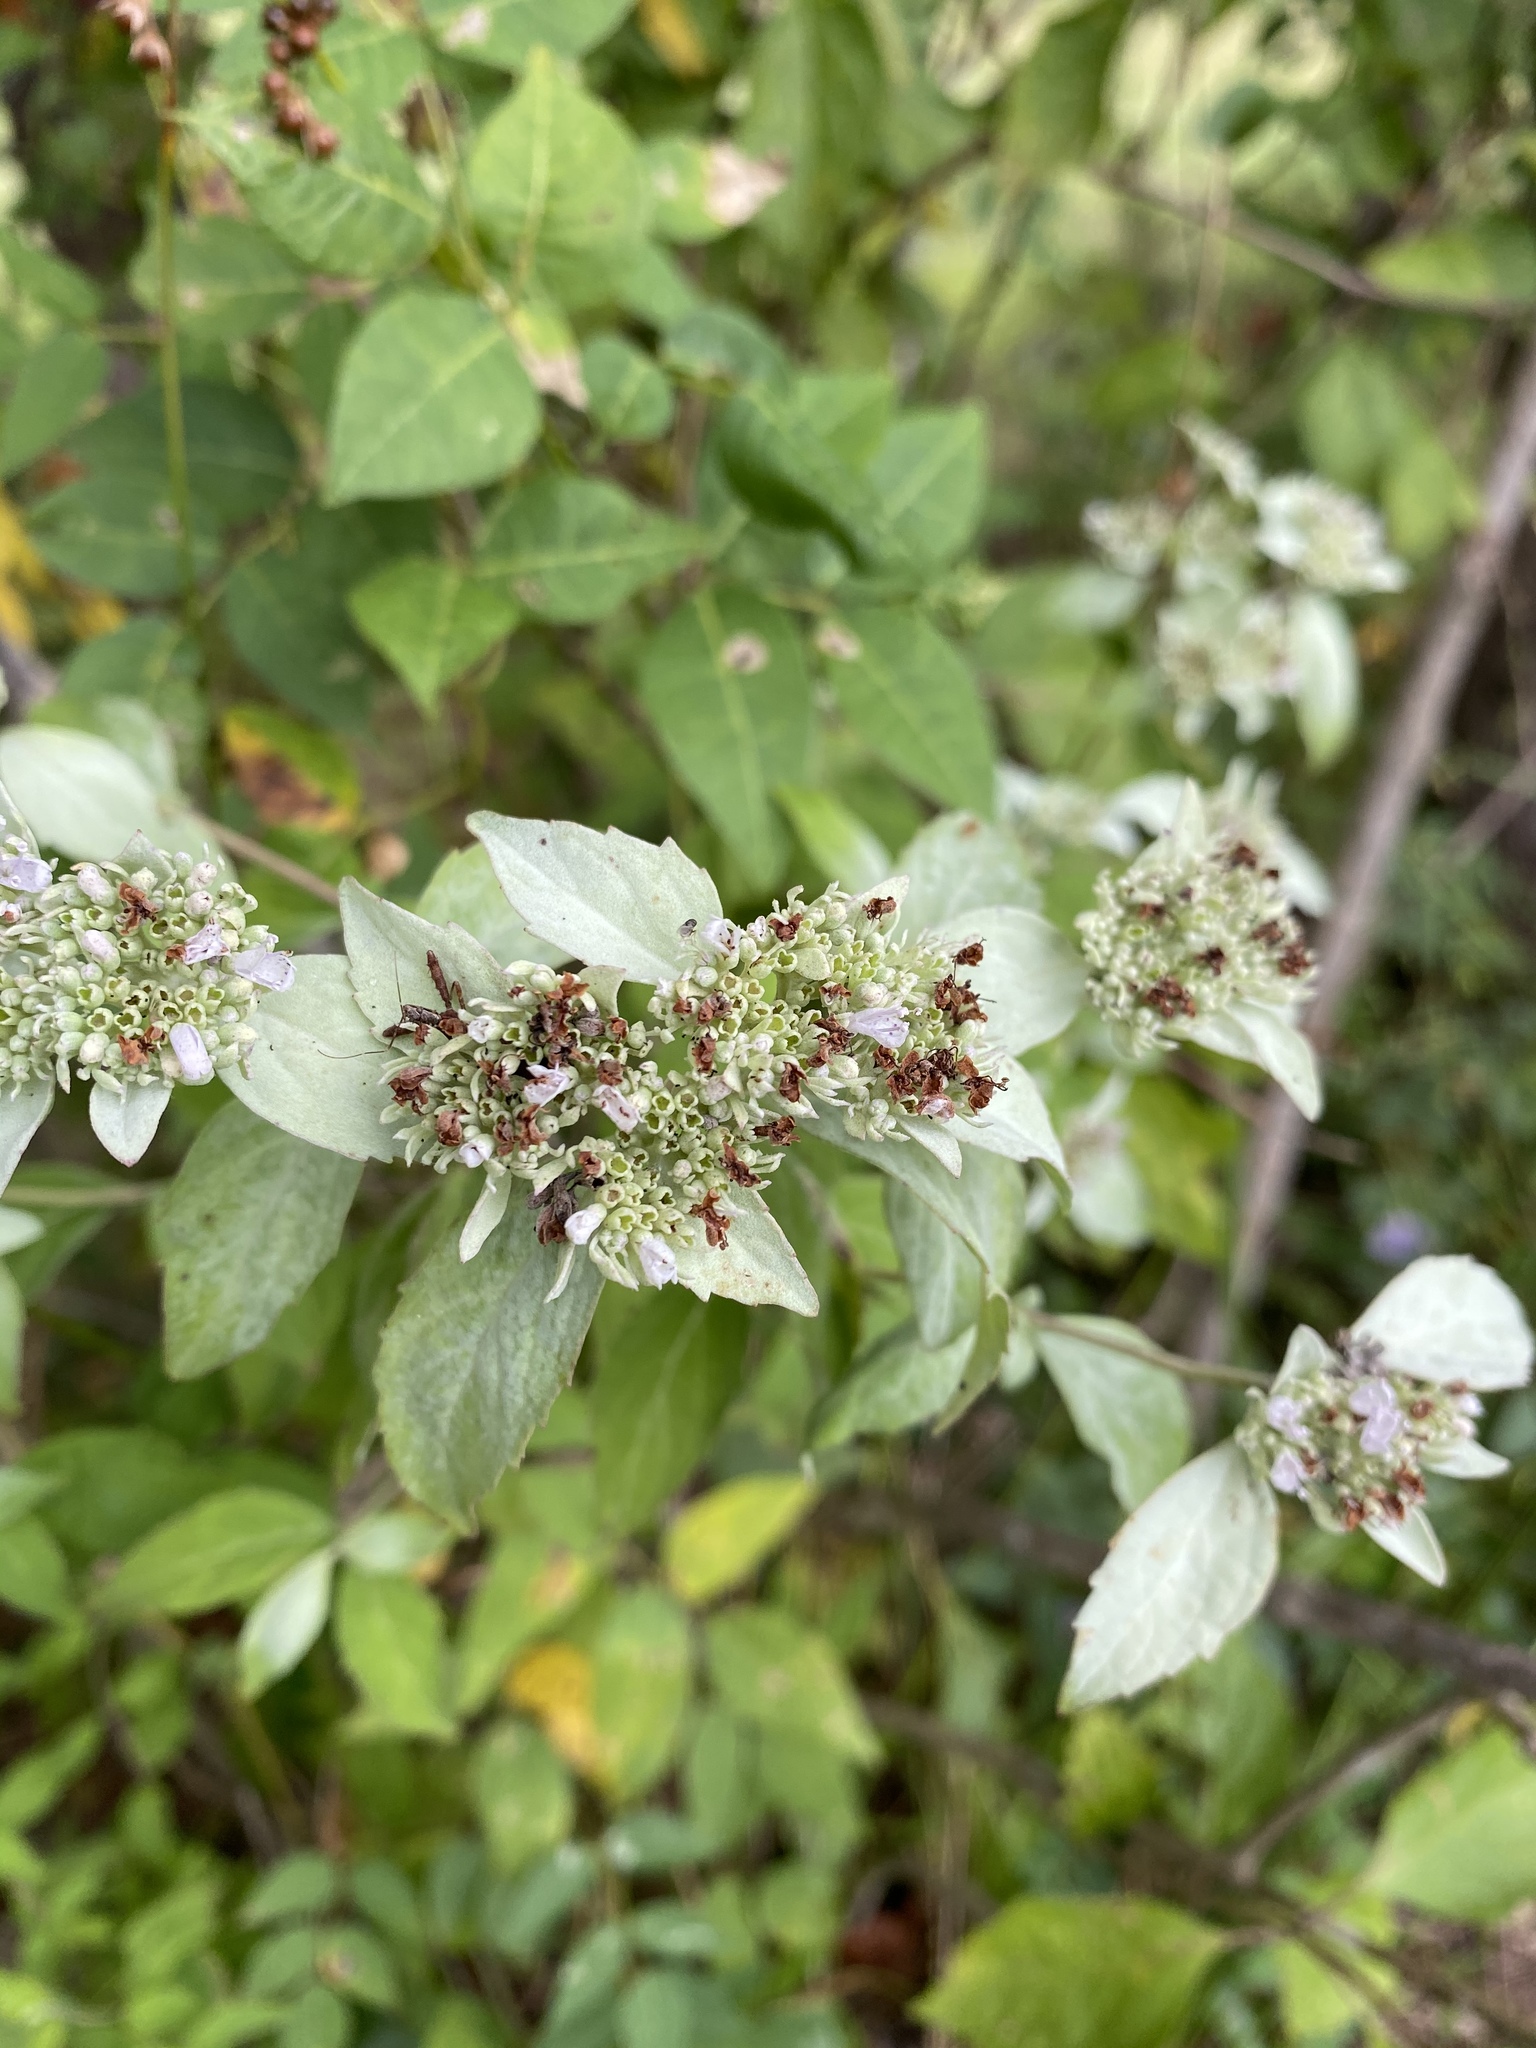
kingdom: Plantae
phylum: Tracheophyta
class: Magnoliopsida
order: Lamiales
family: Lamiaceae
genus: Pycnanthemum
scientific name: Pycnanthemum albescens
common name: White-leaf mountain-mint
